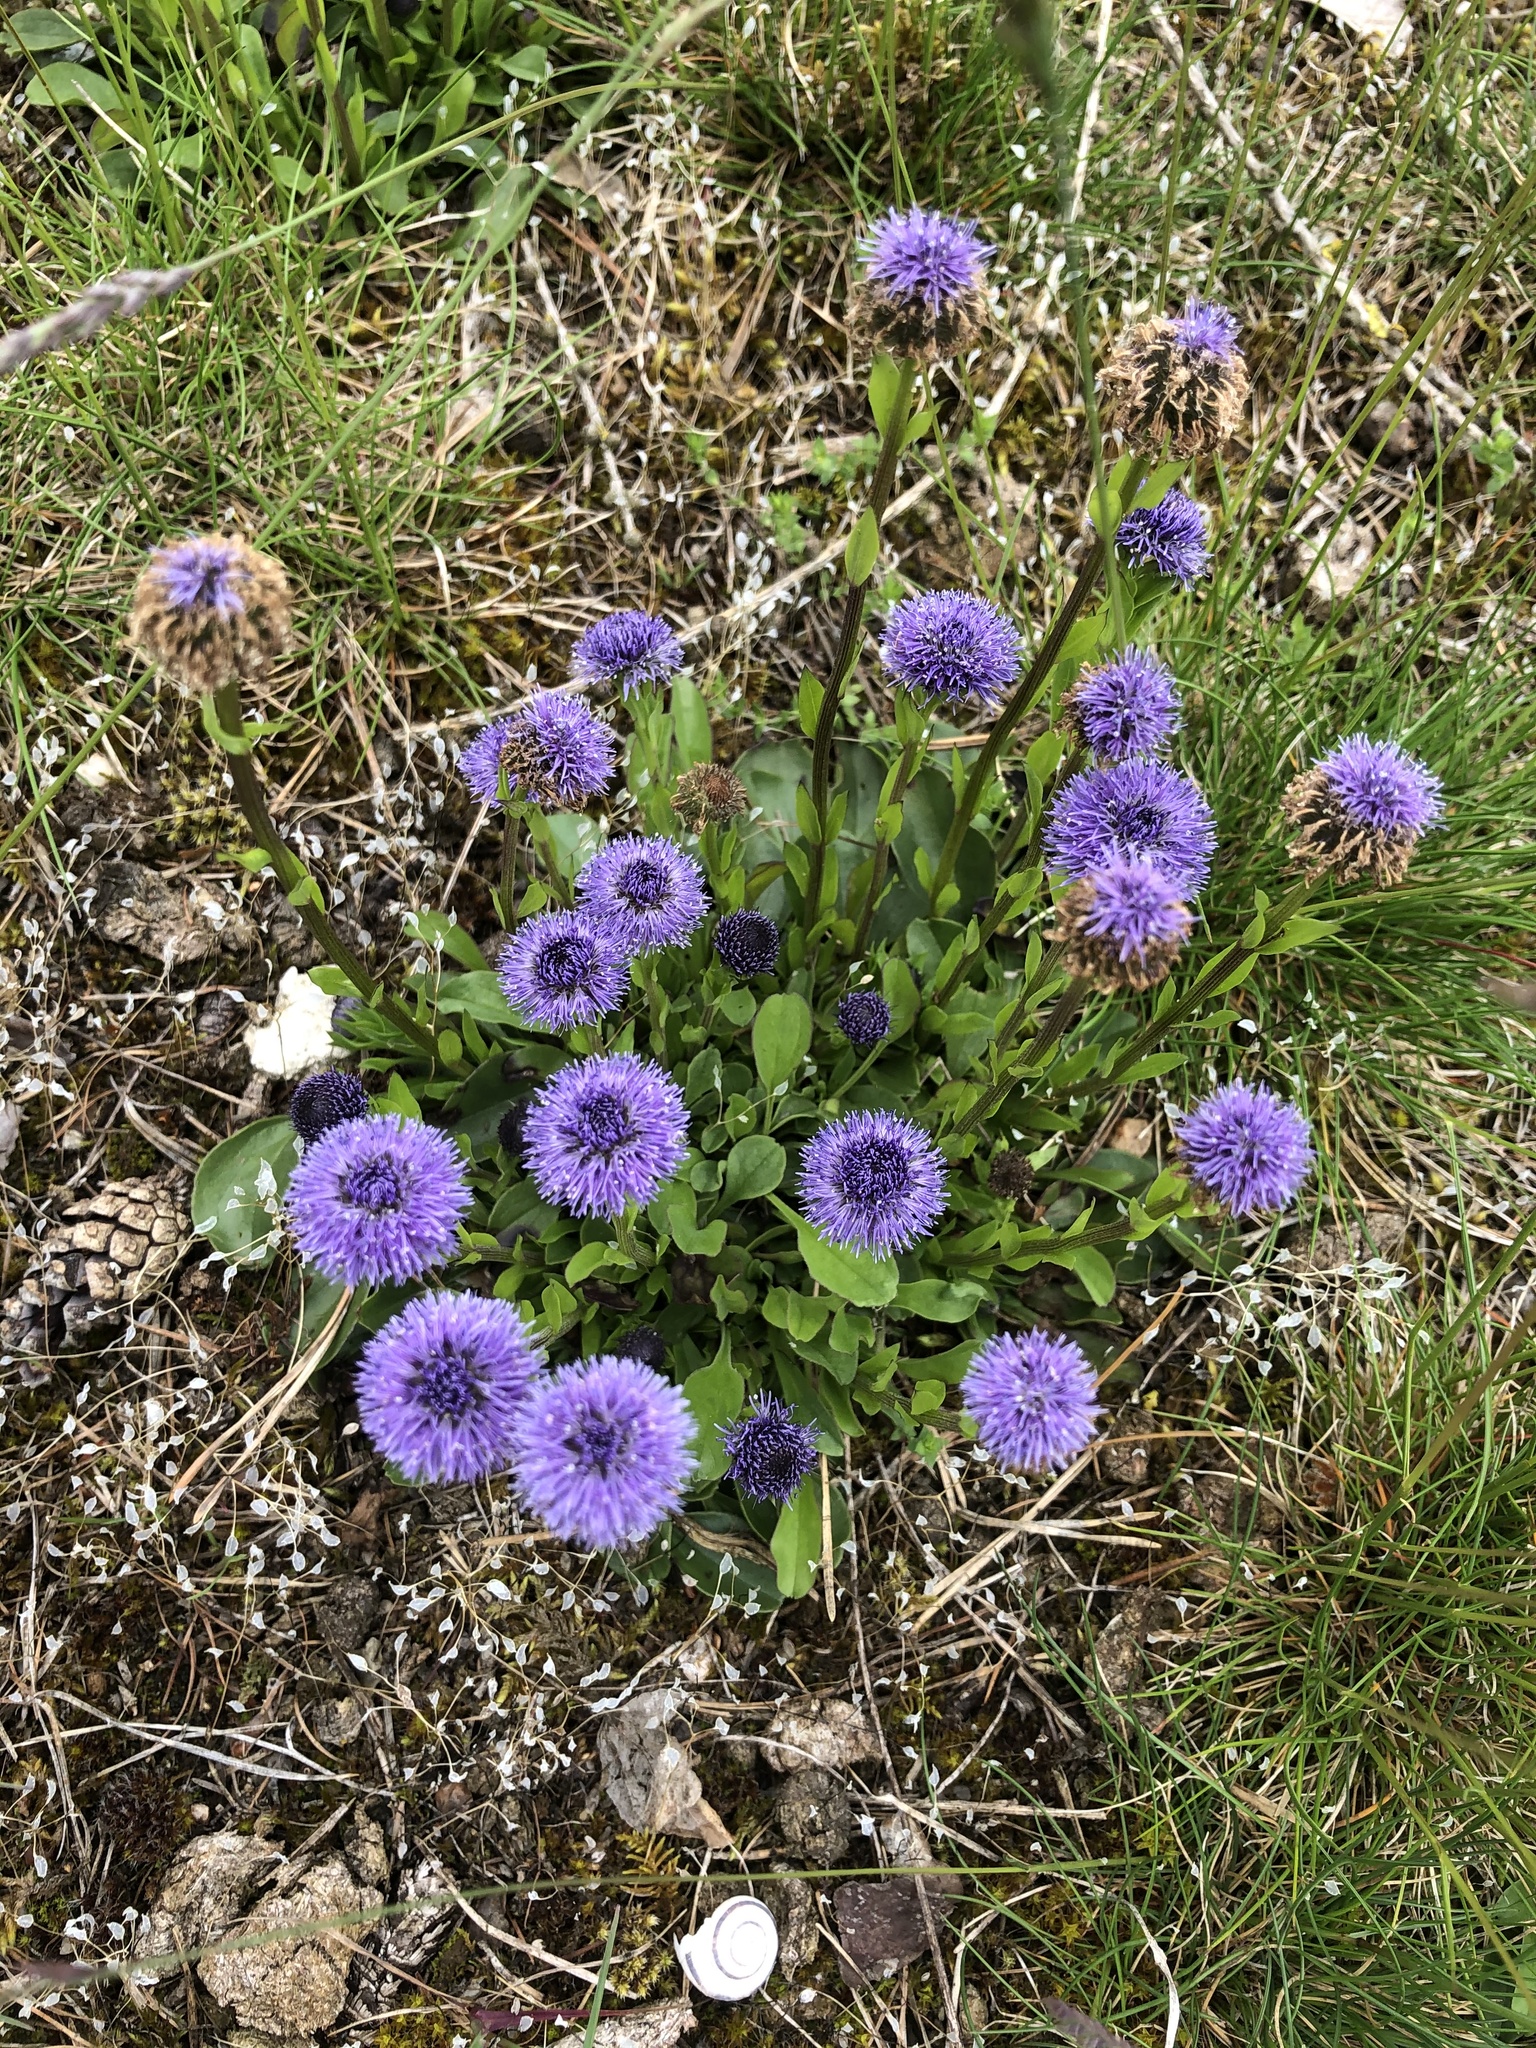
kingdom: Plantae
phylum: Tracheophyta
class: Magnoliopsida
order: Lamiales
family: Plantaginaceae
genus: Globularia
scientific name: Globularia bisnagarica
